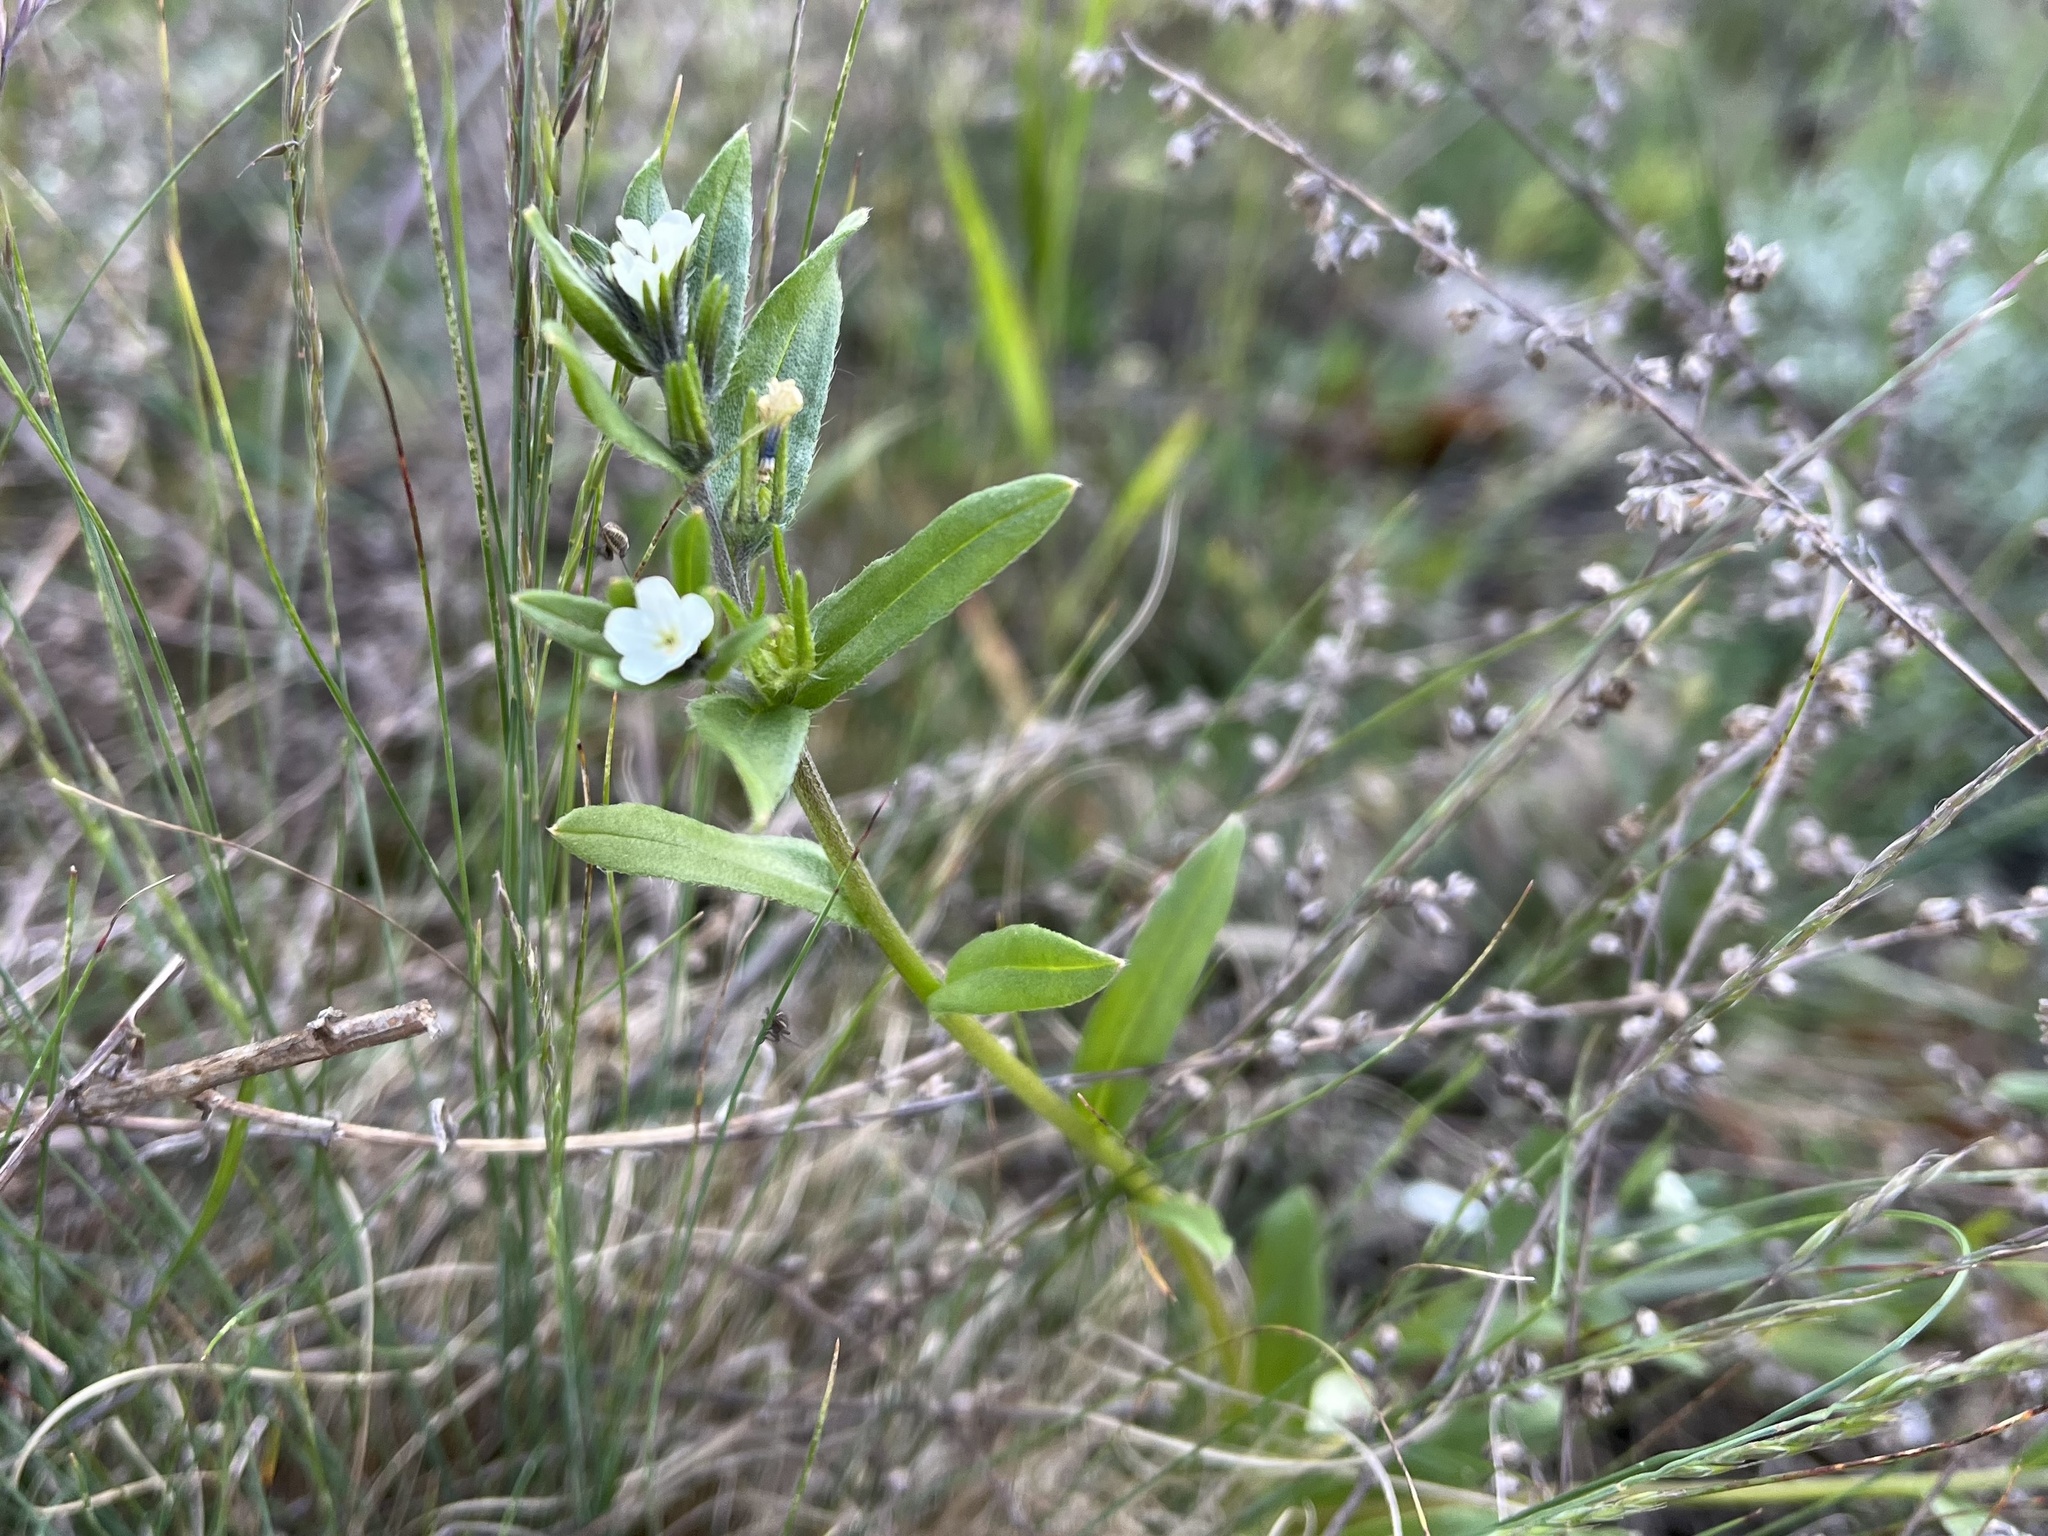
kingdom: Plantae
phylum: Tracheophyta
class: Magnoliopsida
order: Boraginales
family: Boraginaceae
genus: Buglossoides
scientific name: Buglossoides arvensis
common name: Corn gromwell
